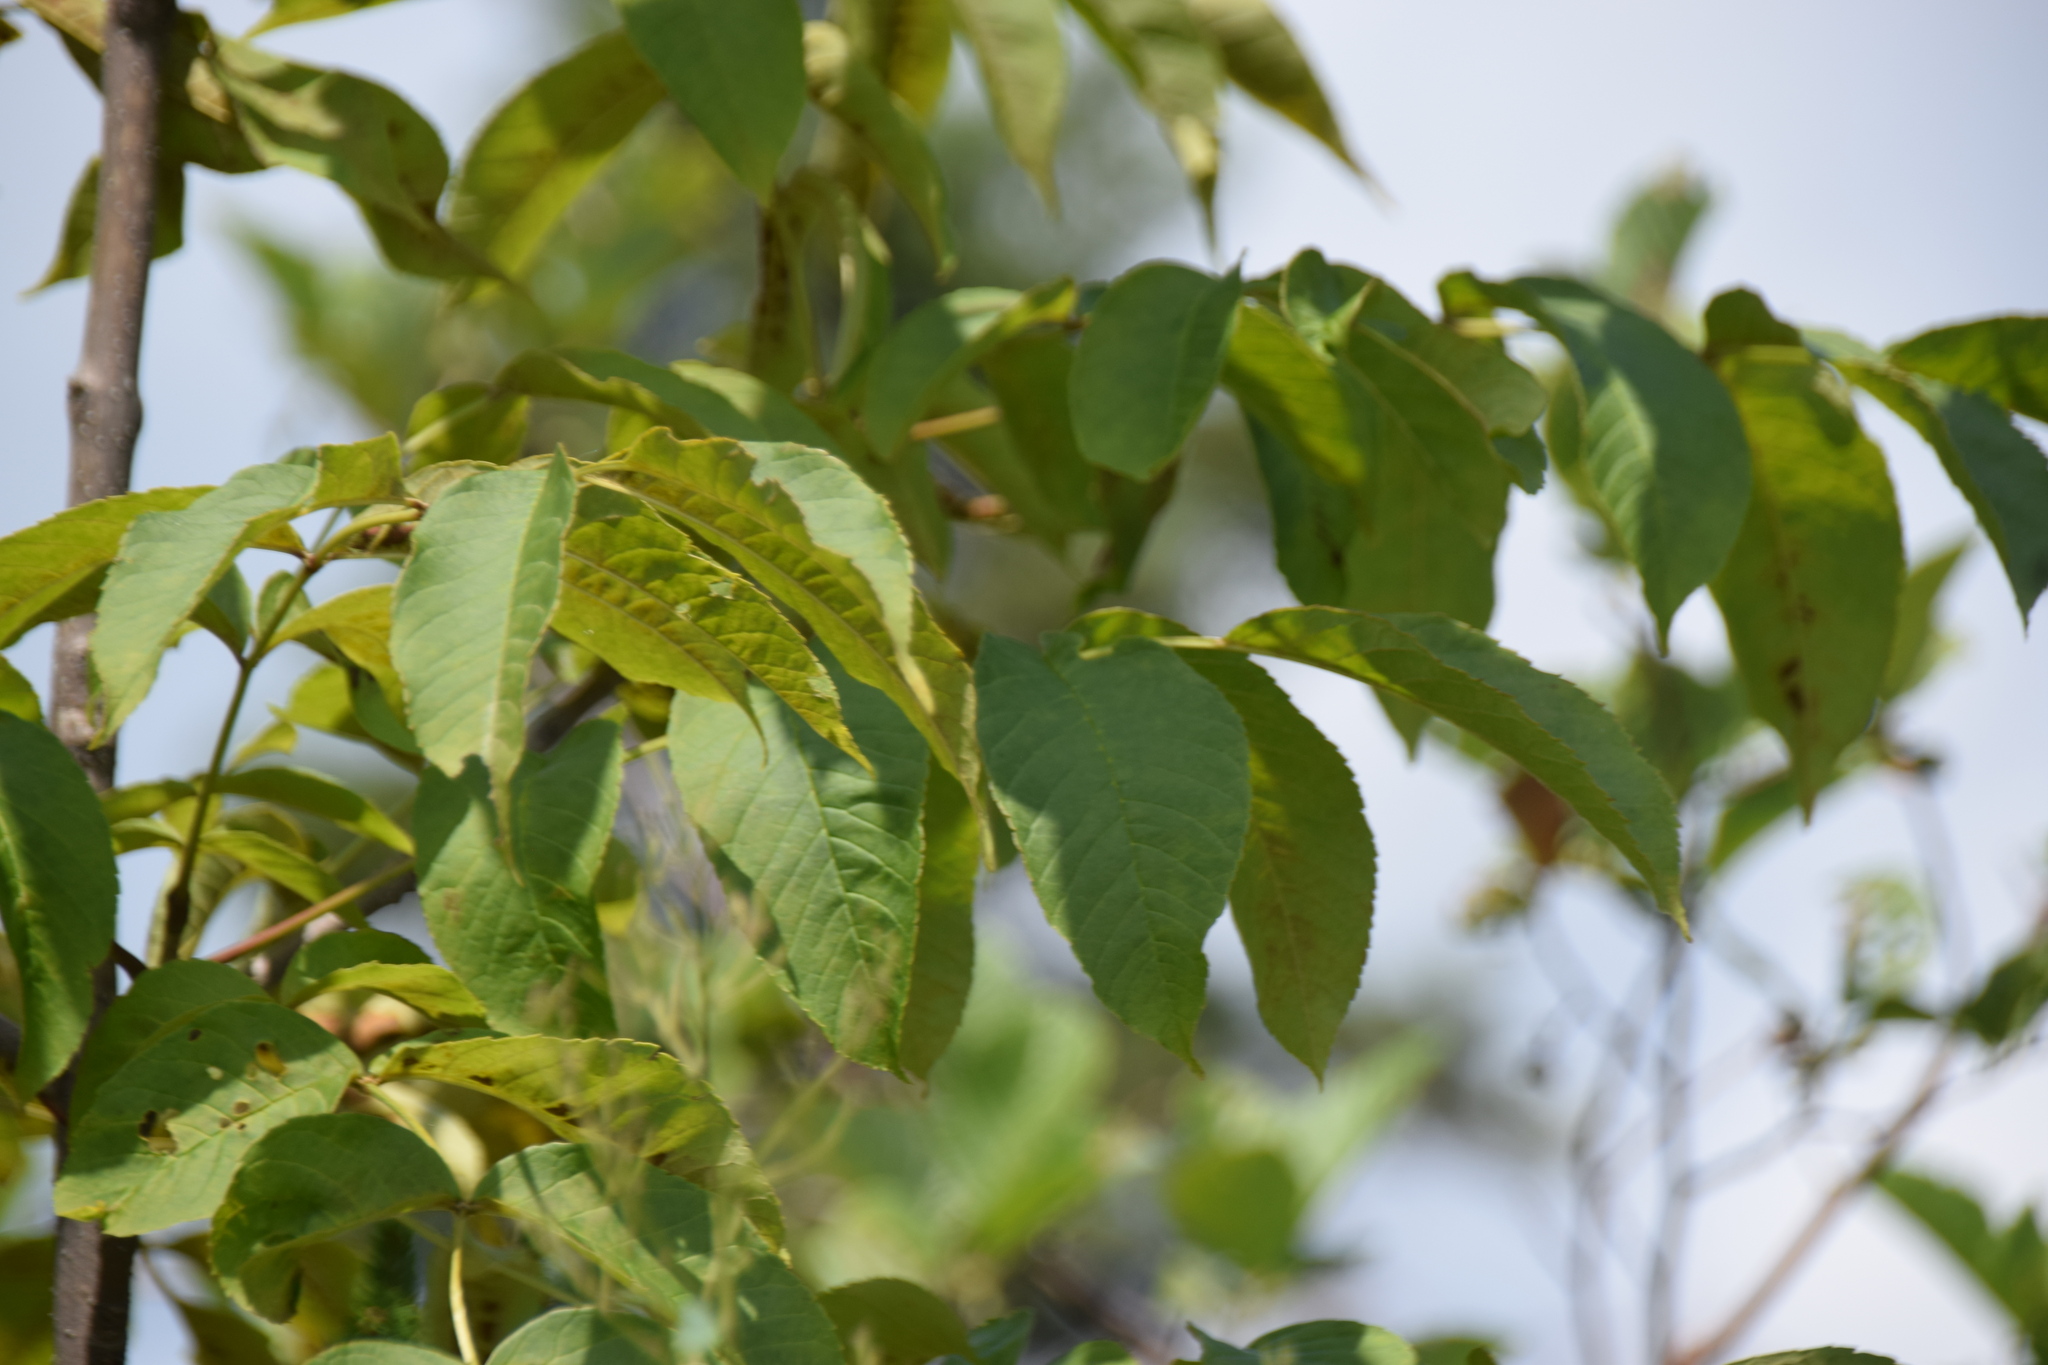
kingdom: Plantae
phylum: Tracheophyta
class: Magnoliopsida
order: Lamiales
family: Oleaceae
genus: Fraxinus
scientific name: Fraxinus nigra
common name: Black ash
